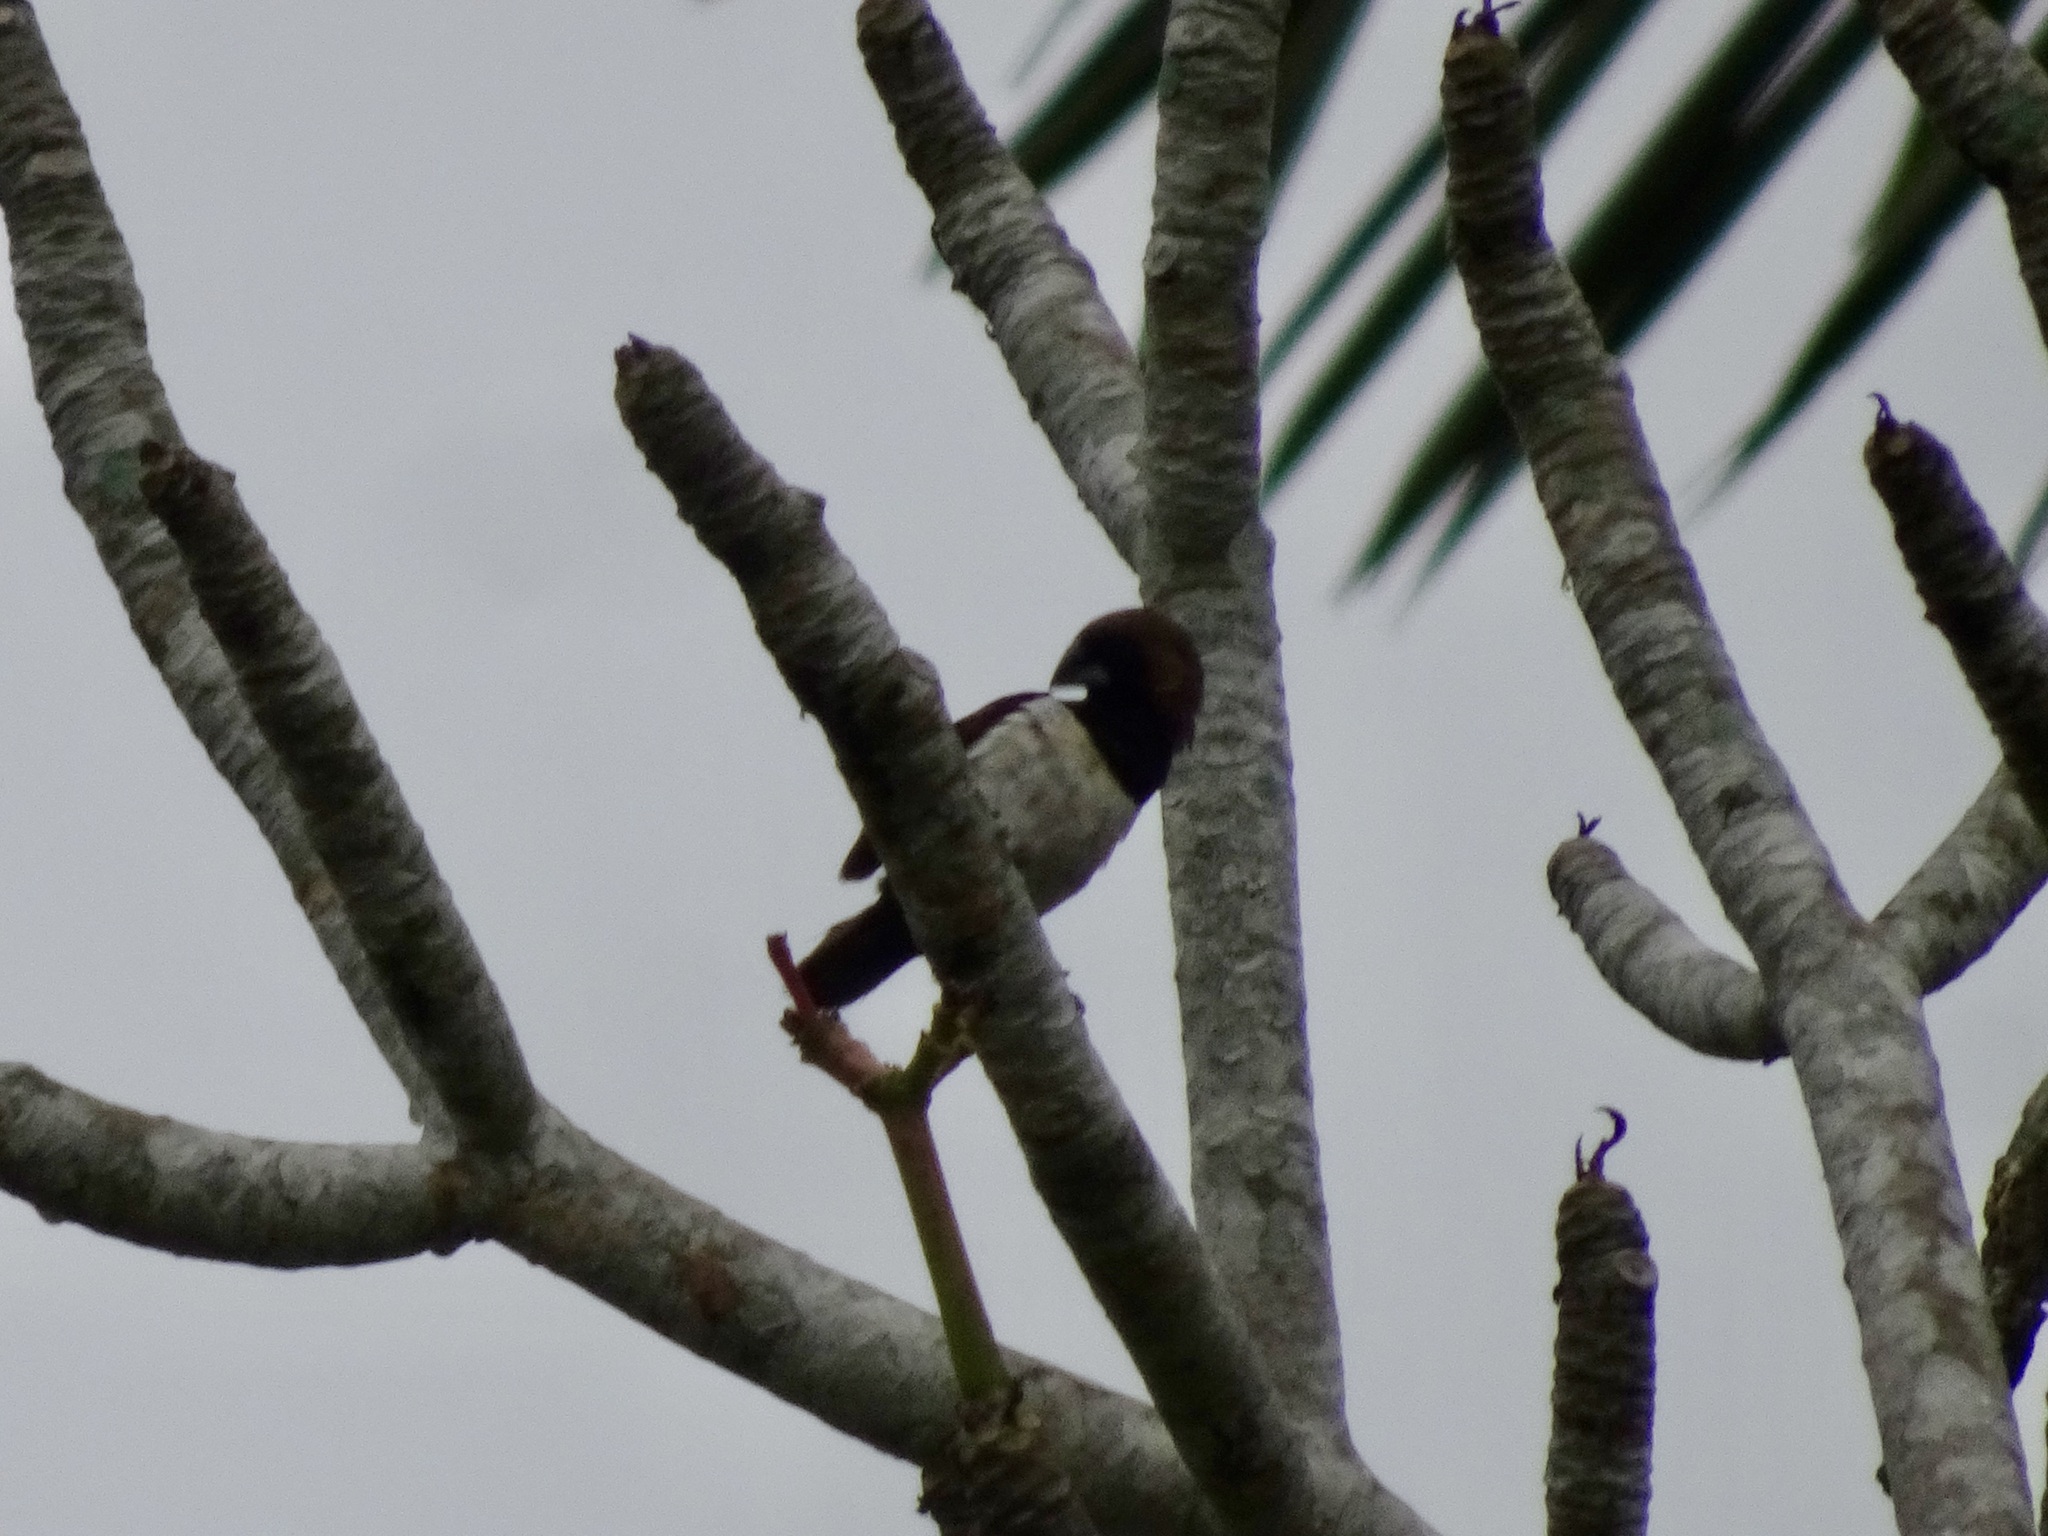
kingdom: Animalia
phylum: Chordata
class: Aves
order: Passeriformes
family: Estrildidae
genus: Lonchura
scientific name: Lonchura leucogastroides
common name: Javan munia
